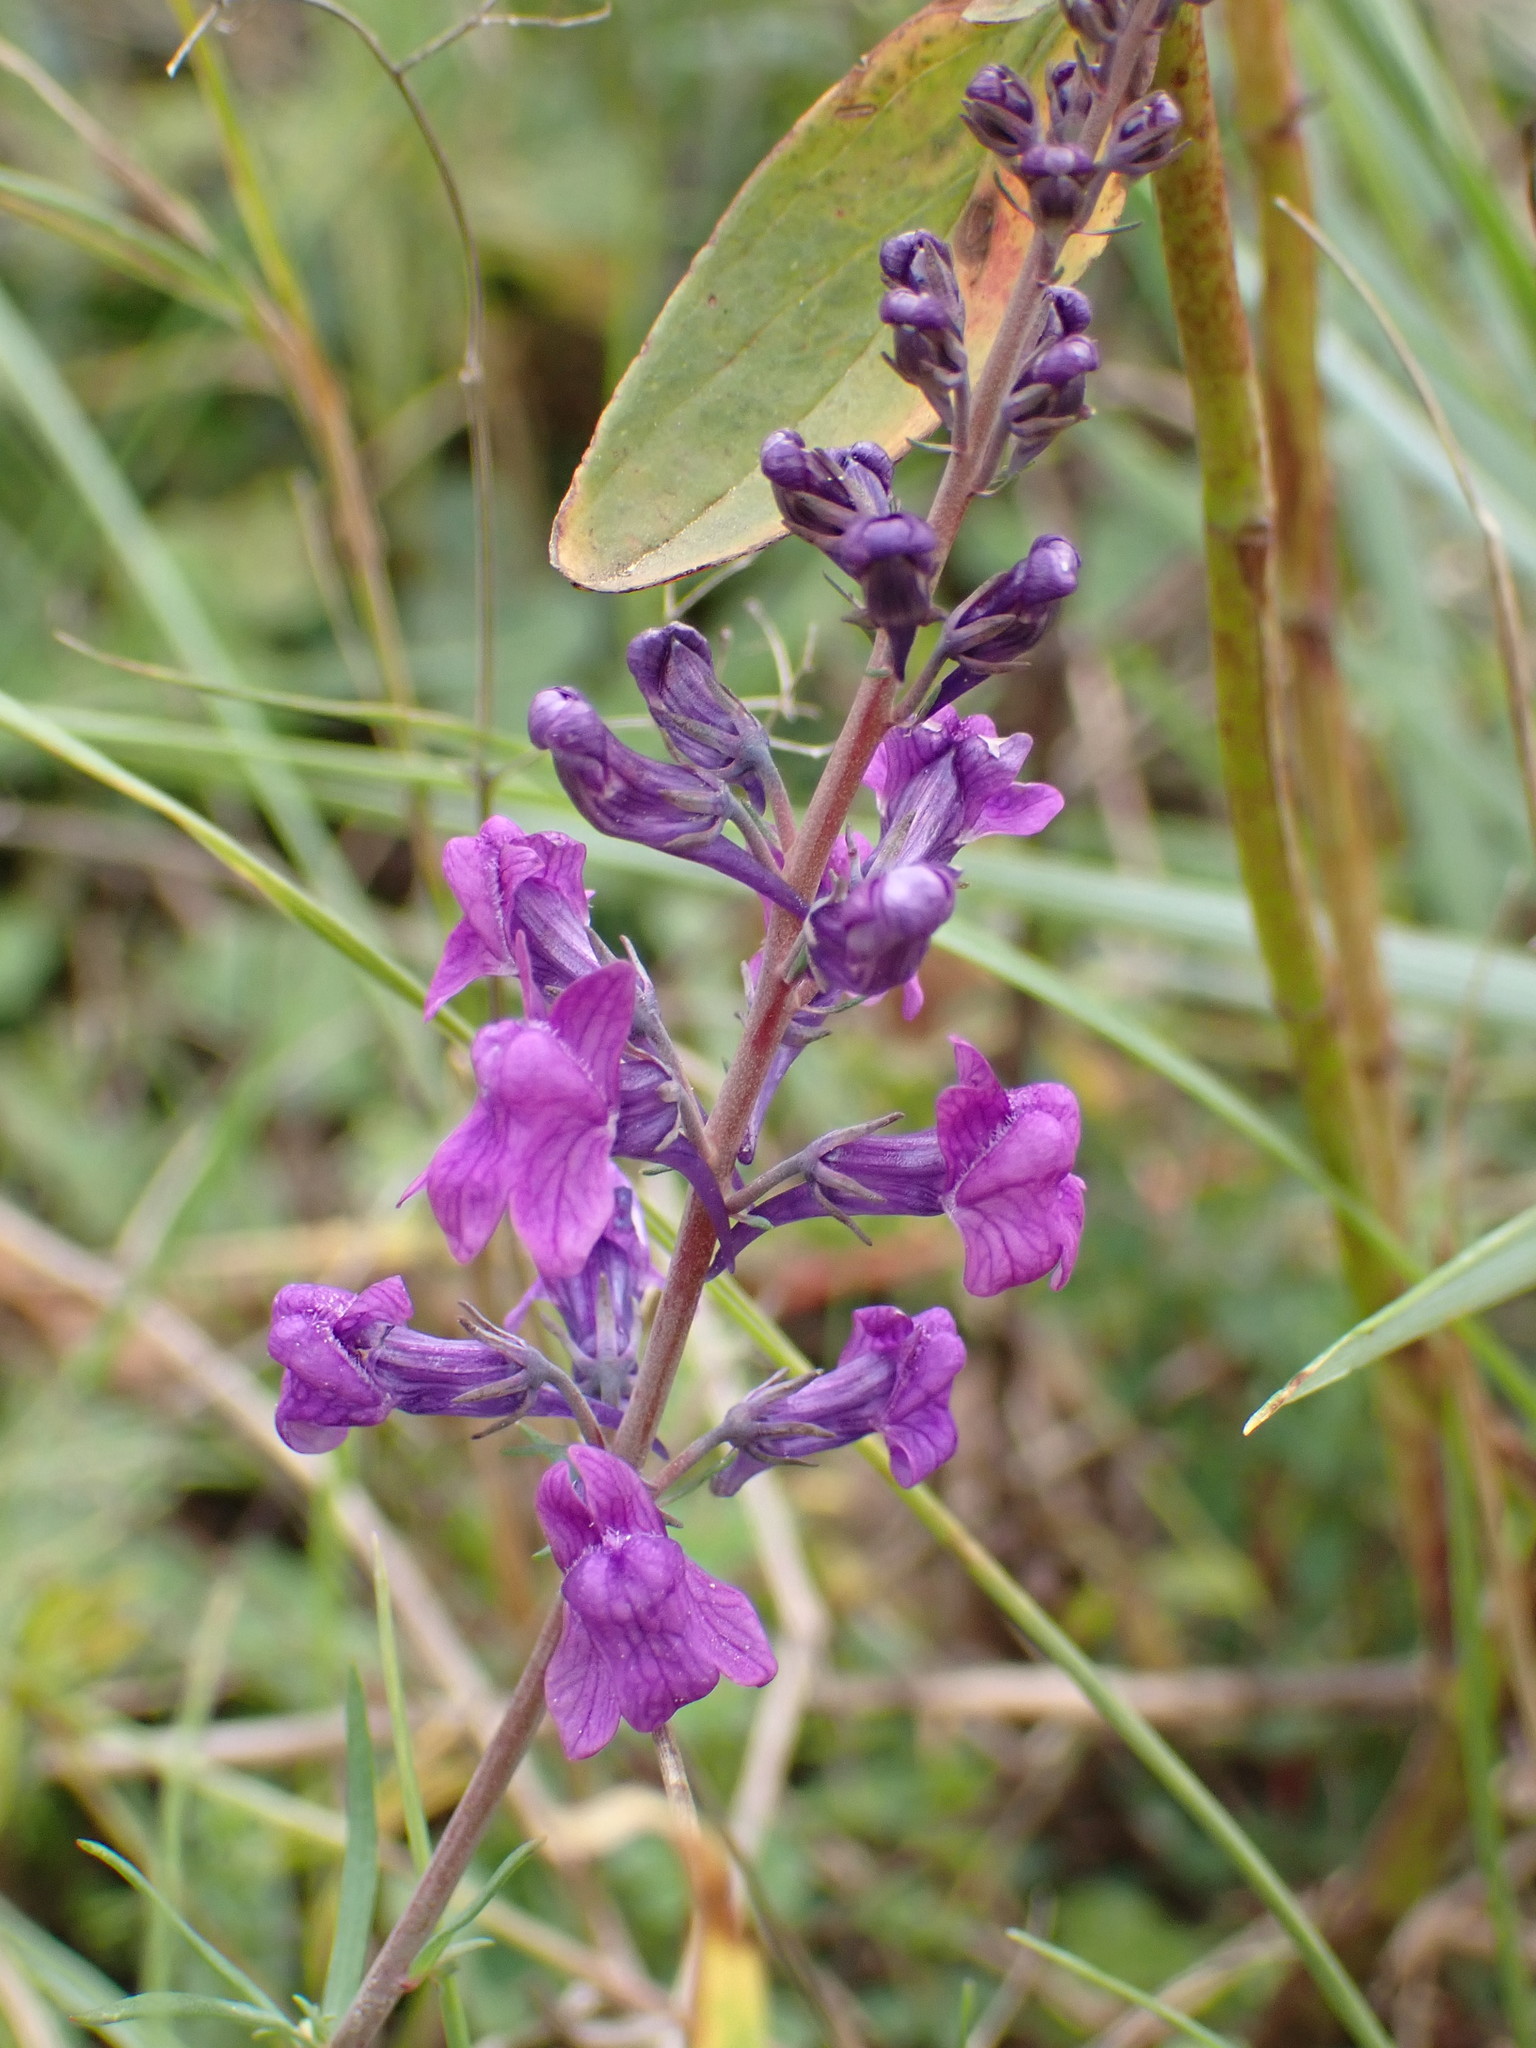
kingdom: Plantae
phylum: Tracheophyta
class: Magnoliopsida
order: Lamiales
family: Plantaginaceae
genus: Linaria
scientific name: Linaria purpurea
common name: Purple toadflax
